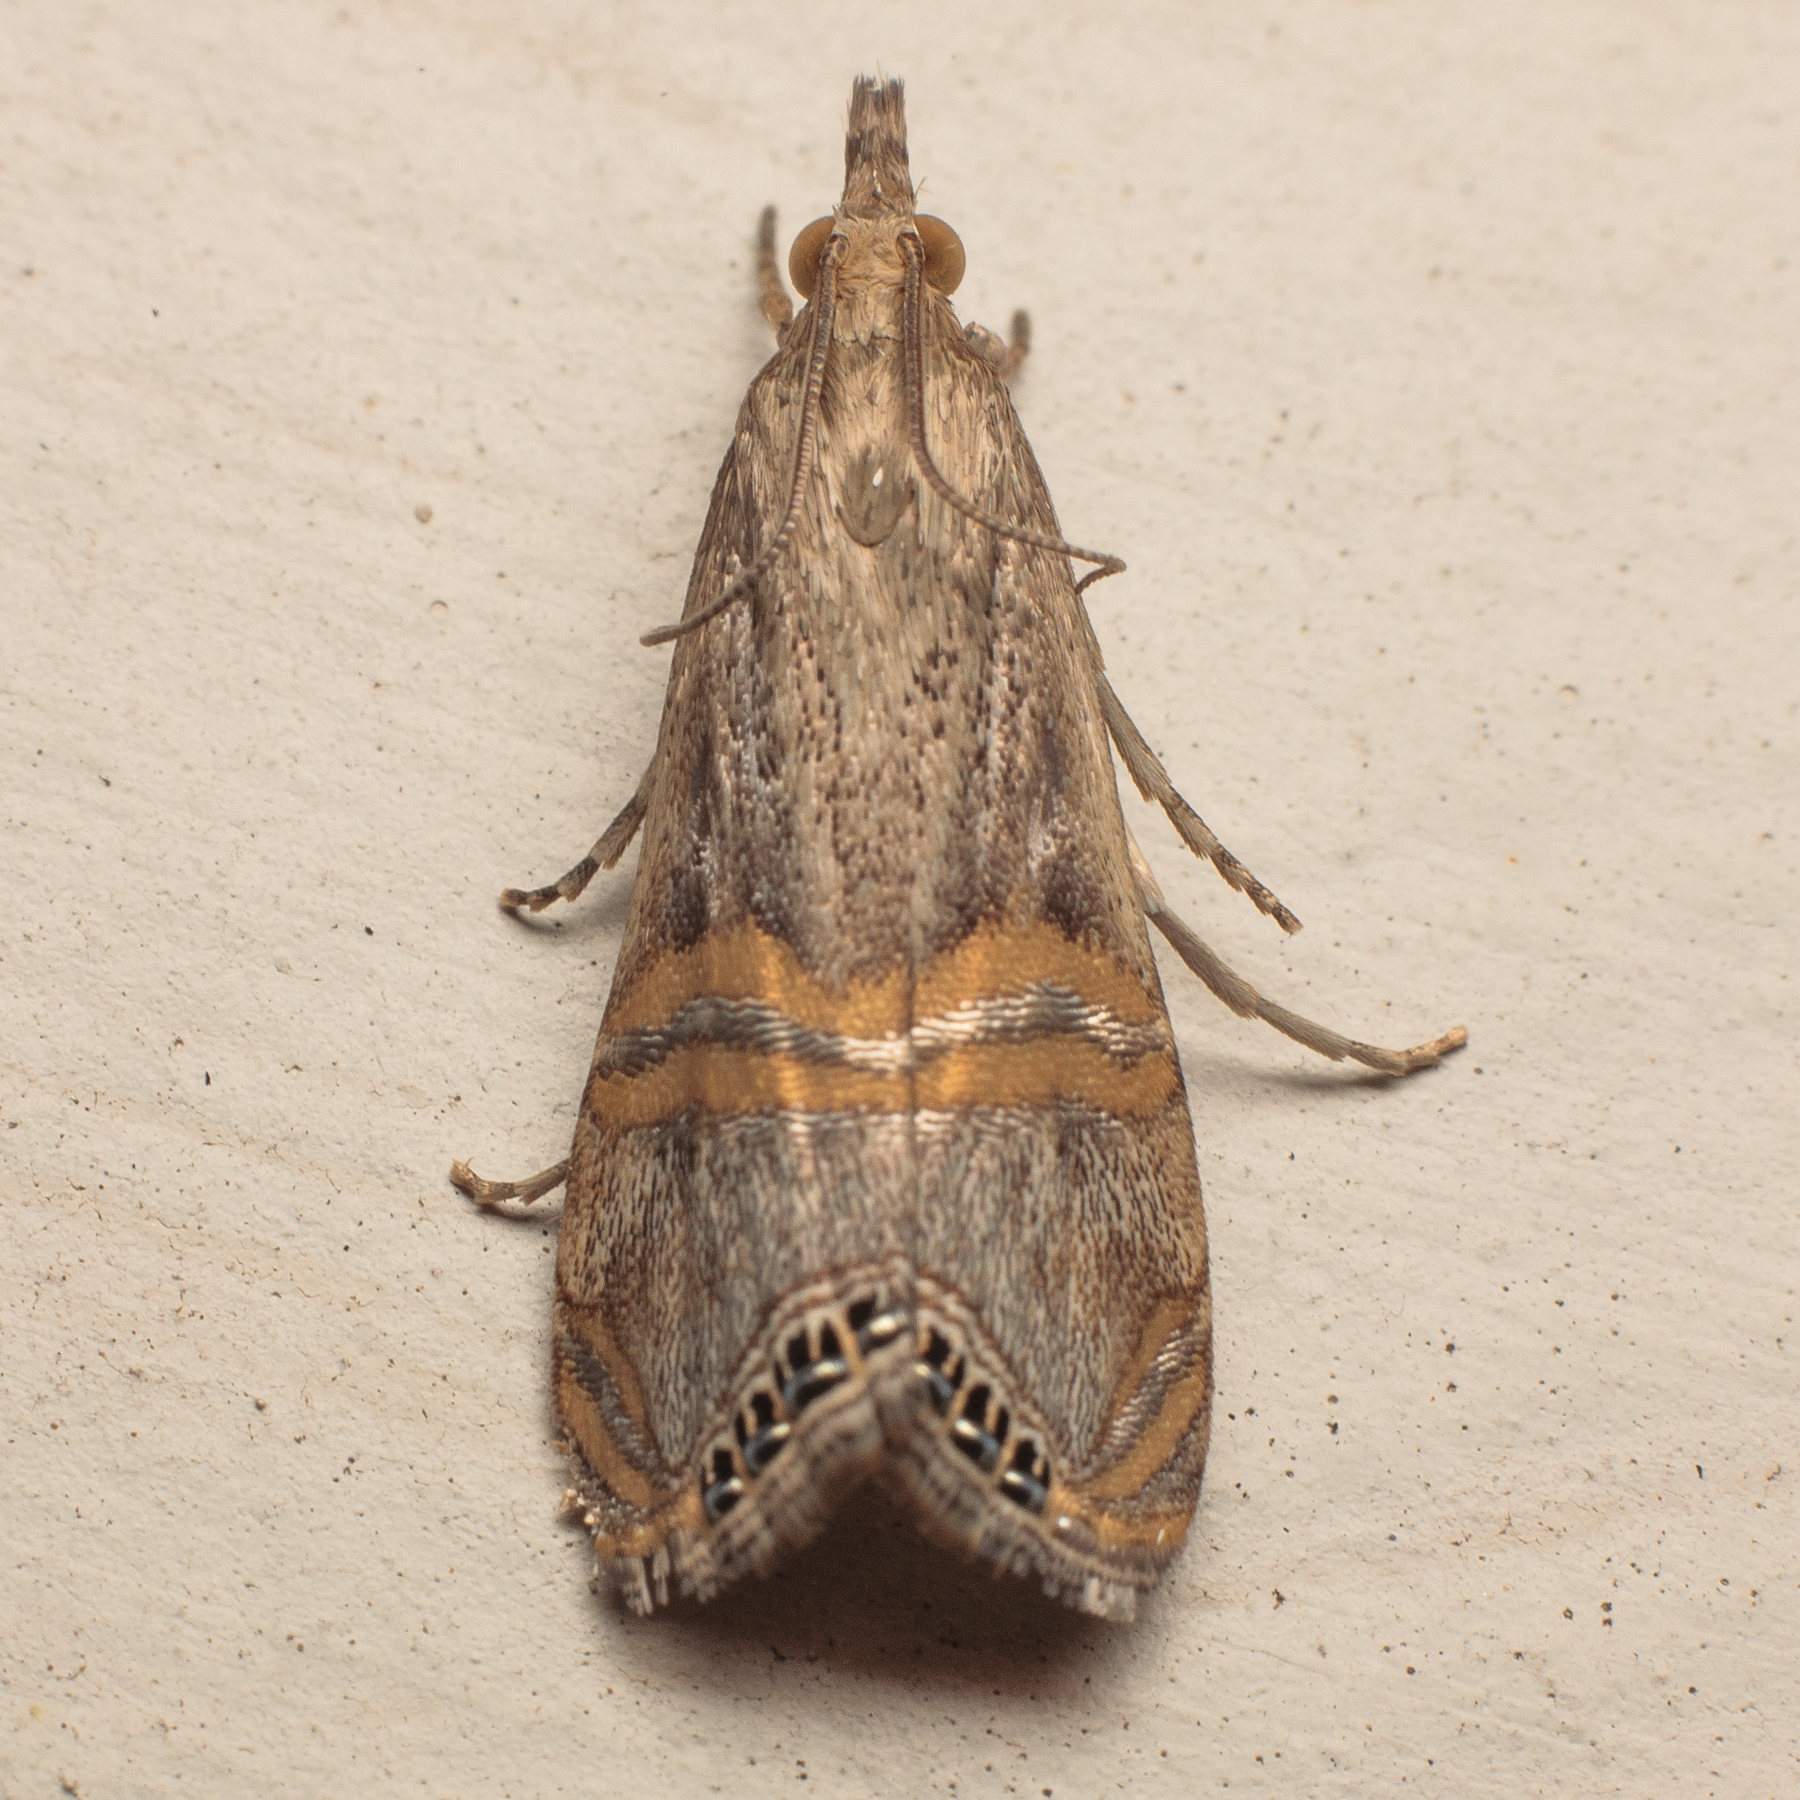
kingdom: Animalia
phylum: Arthropoda
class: Insecta
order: Lepidoptera
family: Crambidae
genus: Euchromius
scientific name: Euchromius ocellea
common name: Necklace veneer moth
